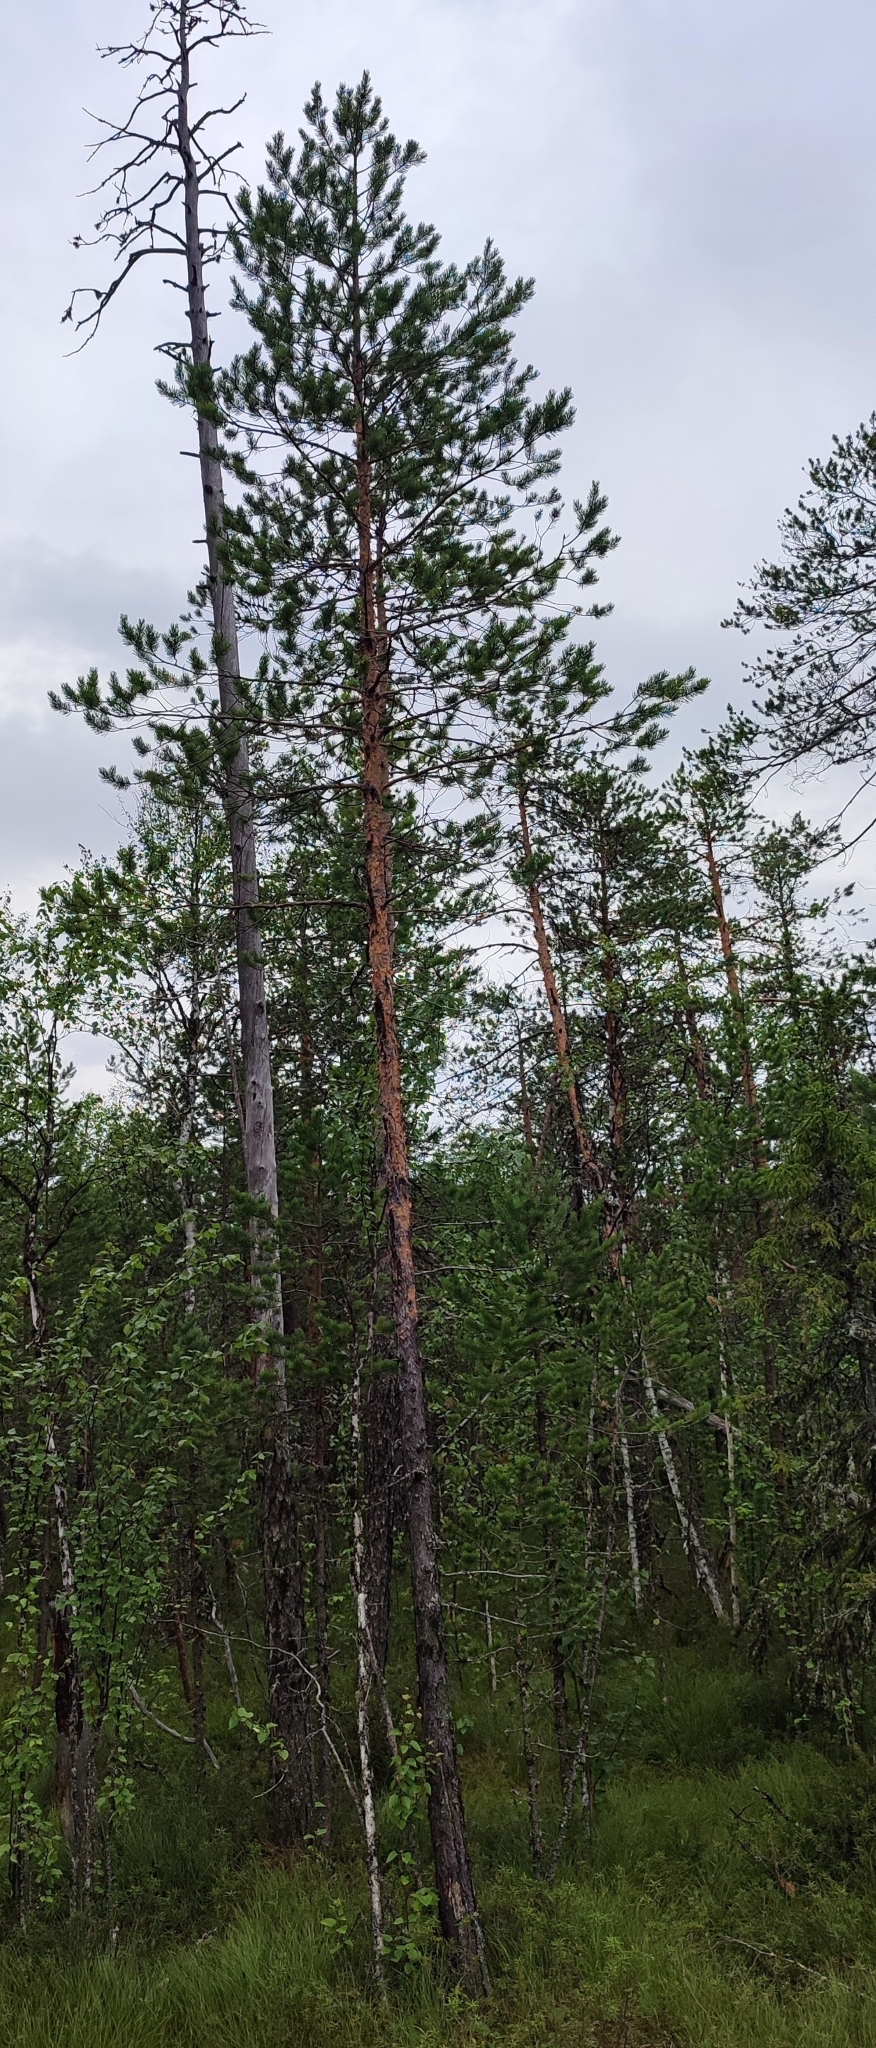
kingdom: Plantae
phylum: Tracheophyta
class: Pinopsida
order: Pinales
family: Pinaceae
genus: Pinus
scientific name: Pinus sylvestris
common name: Scots pine
